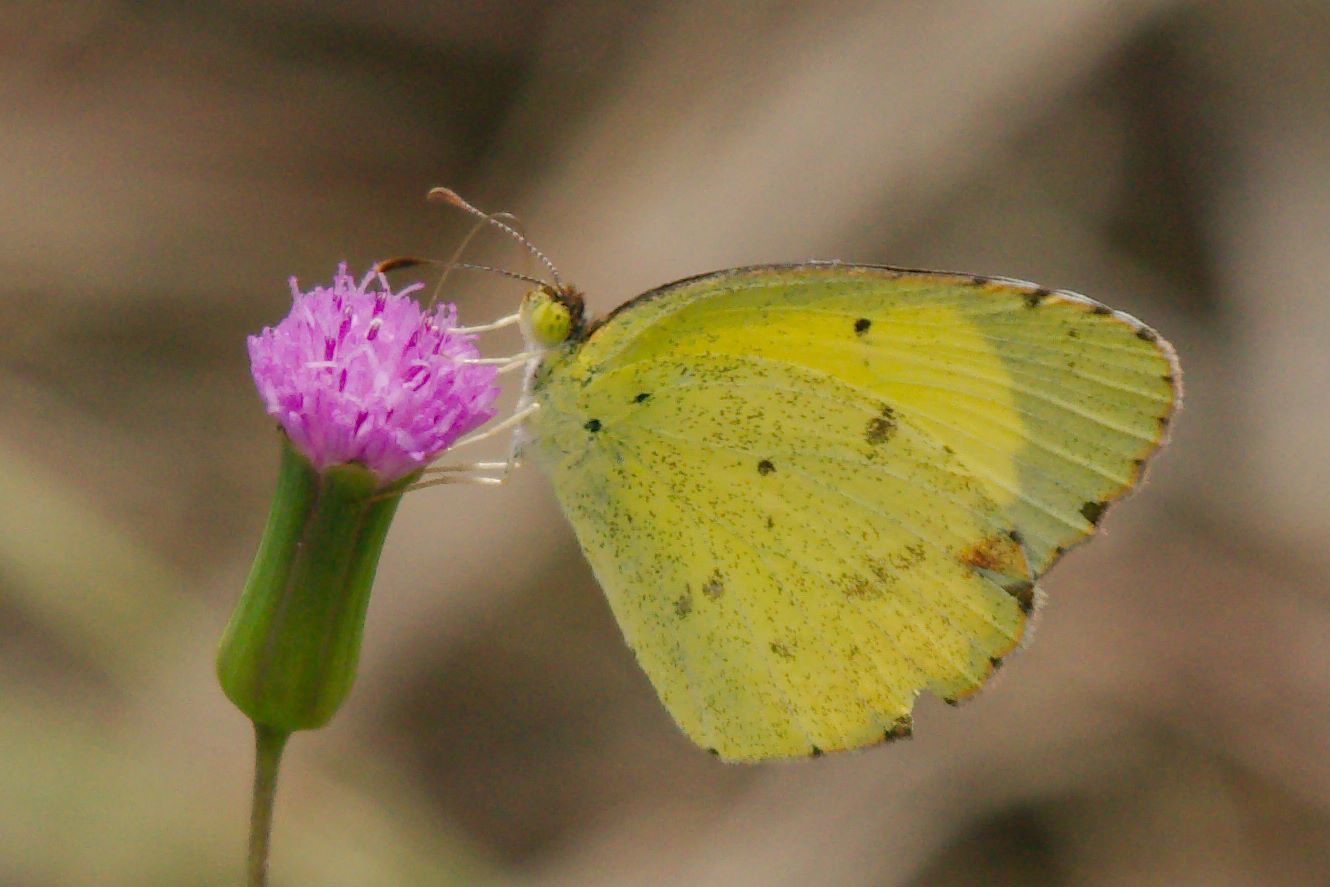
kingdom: Animalia
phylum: Arthropoda
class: Insecta
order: Lepidoptera
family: Pieridae
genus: Pyrisitia
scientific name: Pyrisitia lisa
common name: Little yellow
